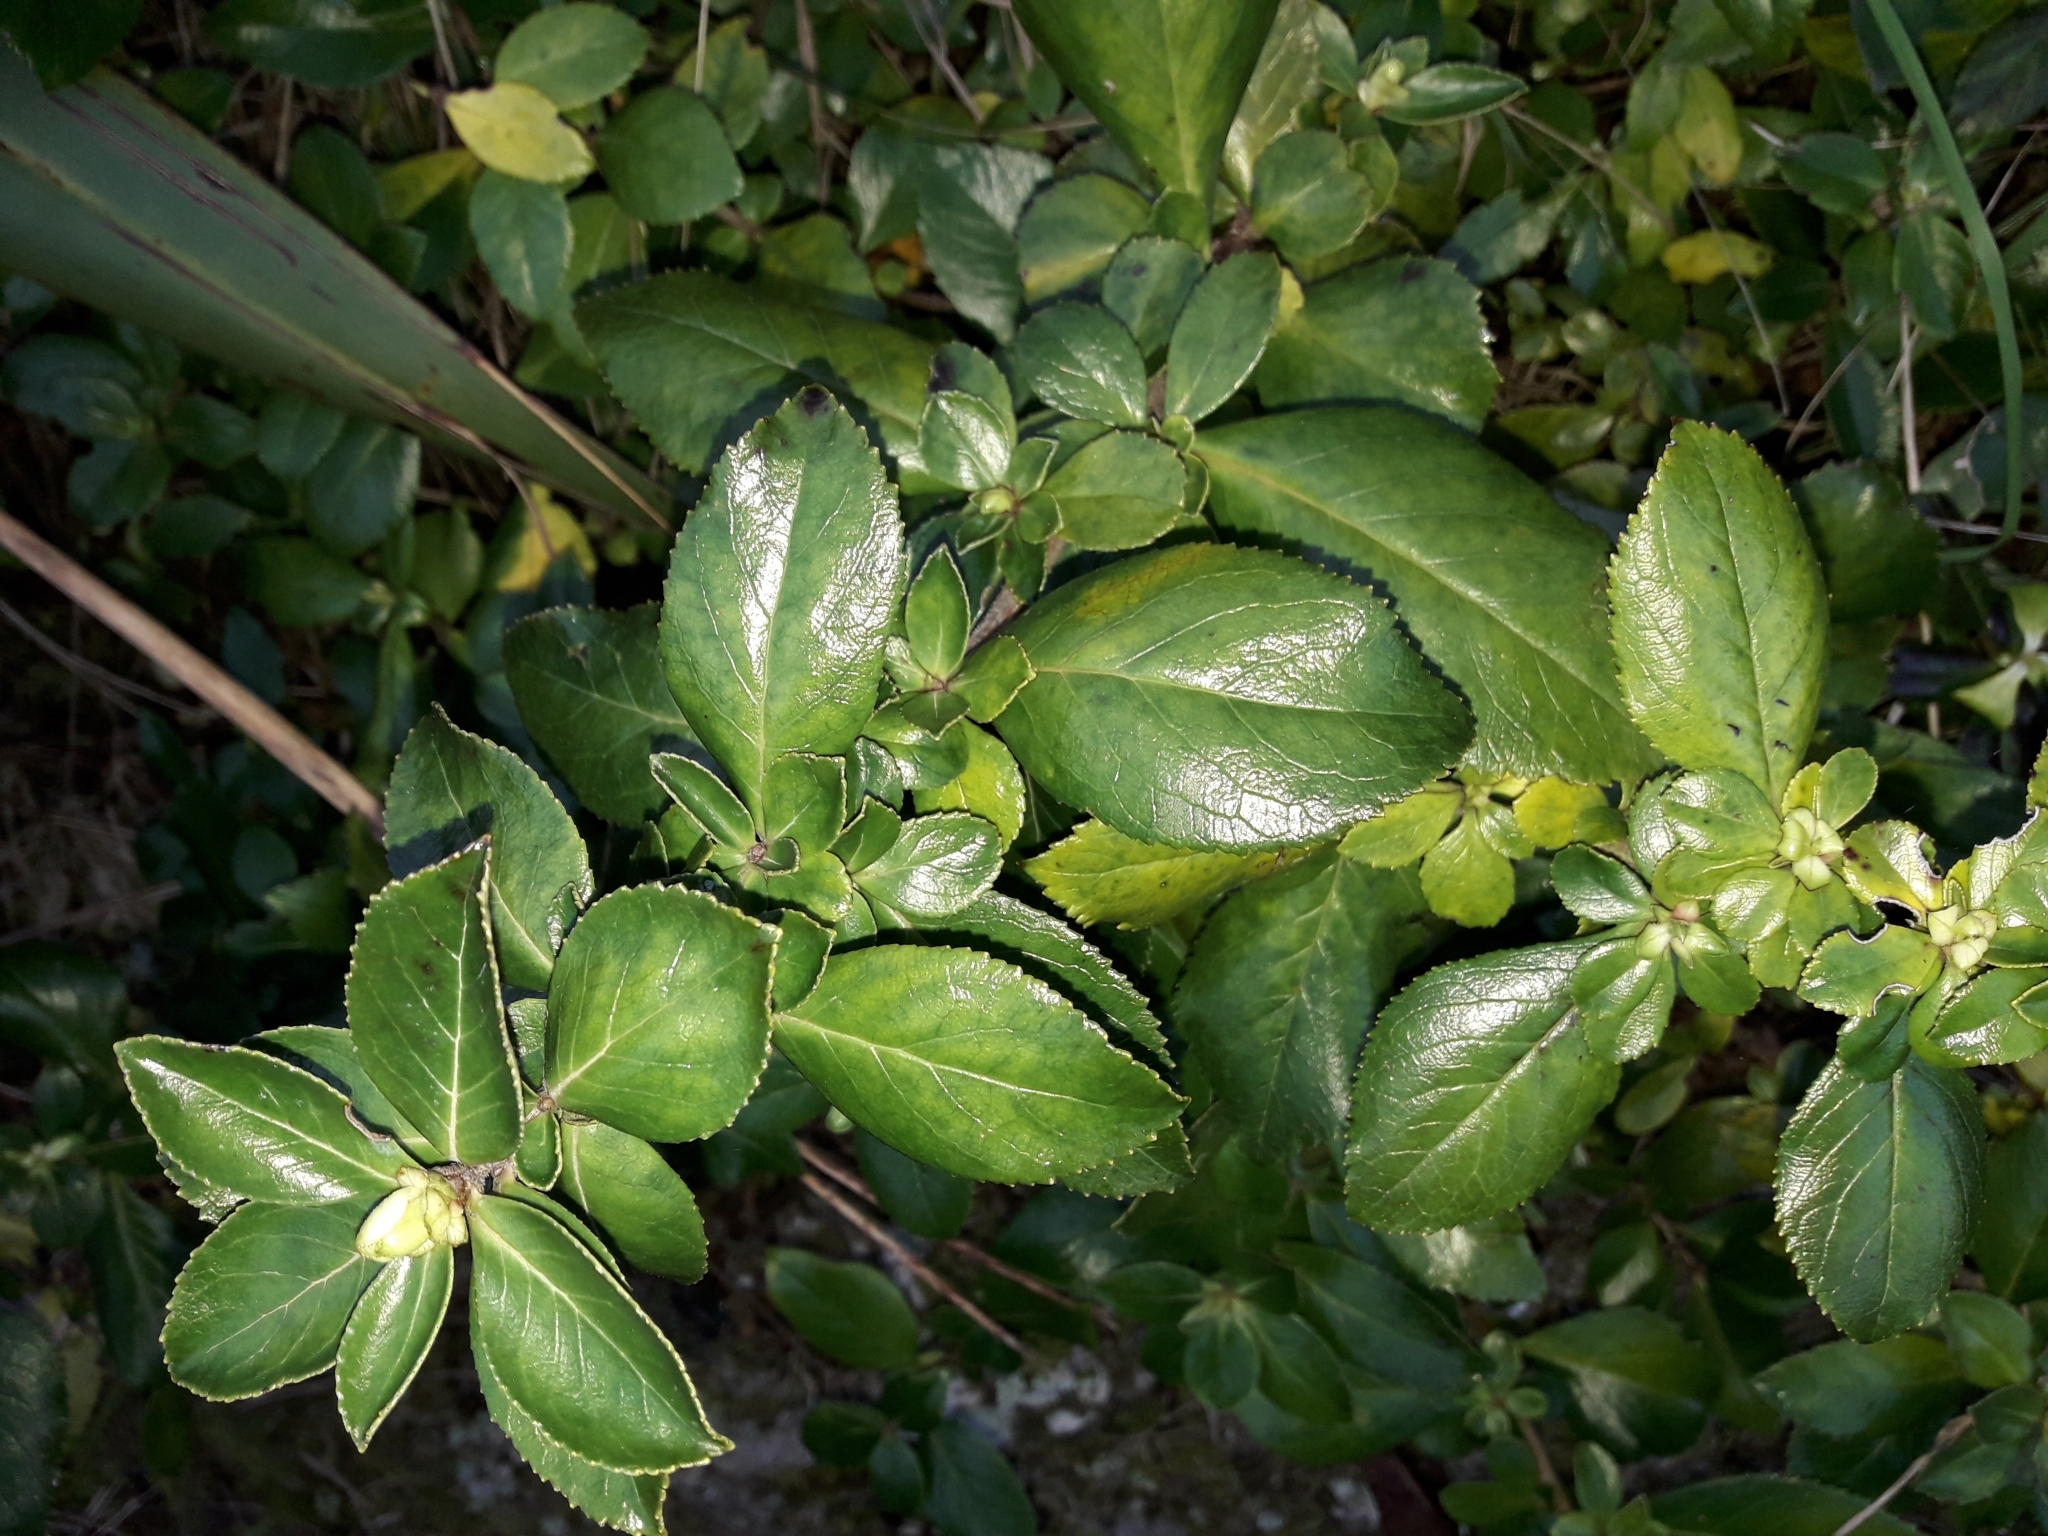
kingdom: Plantae
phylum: Tracheophyta
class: Magnoliopsida
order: Escalloniales
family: Escalloniaceae
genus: Escallonia
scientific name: Escallonia rubra
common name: Redclaws
